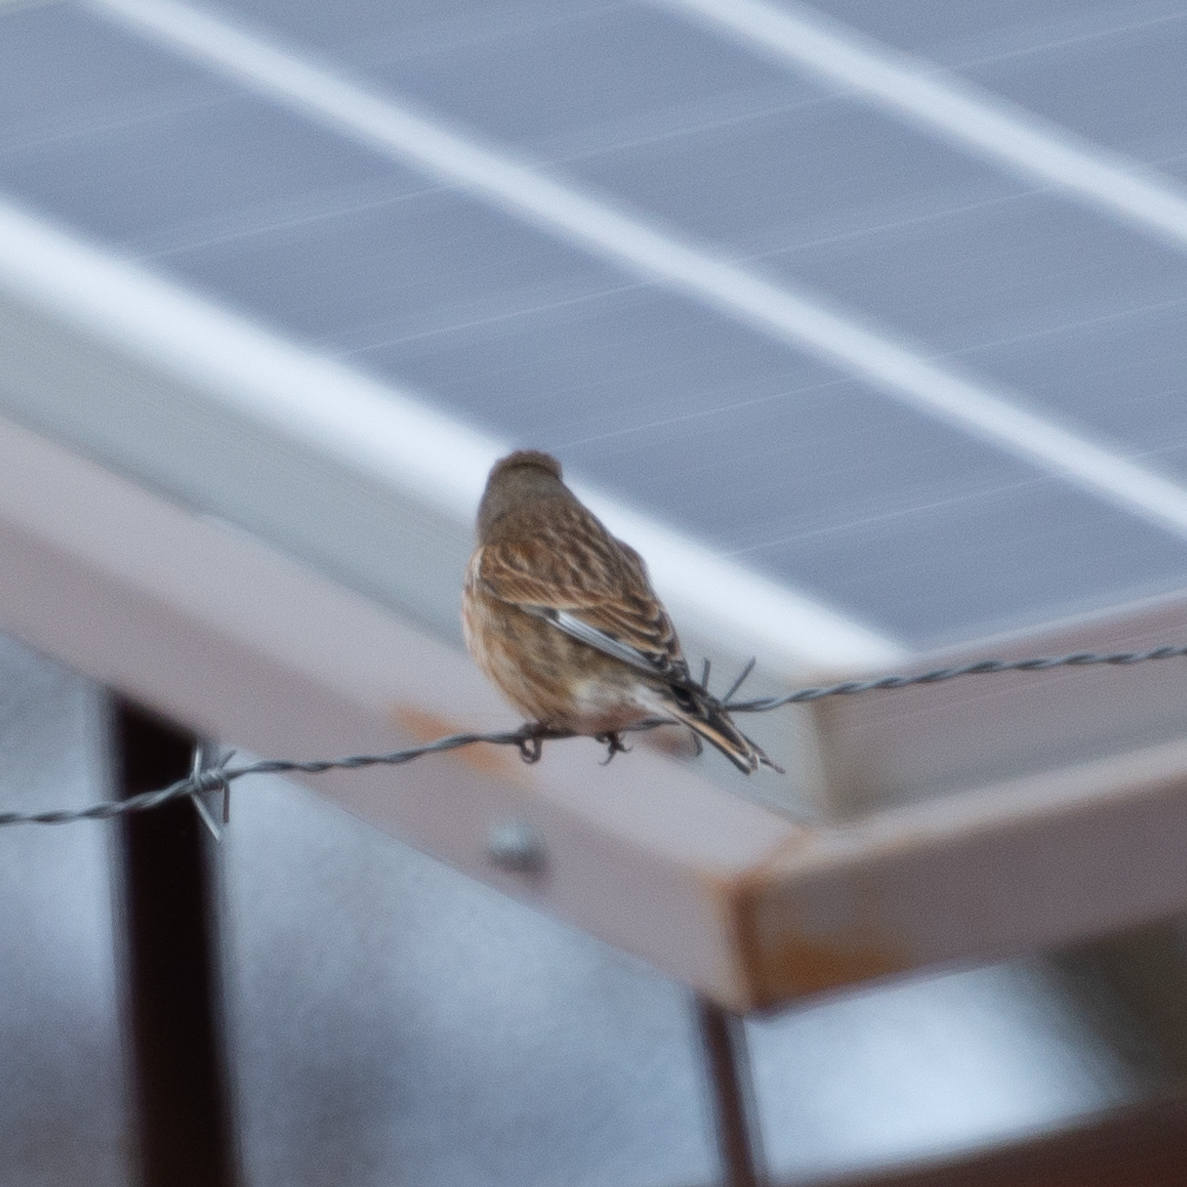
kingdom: Animalia
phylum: Chordata
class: Aves
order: Passeriformes
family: Fringillidae
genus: Linaria
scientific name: Linaria cannabina
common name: Common linnet
